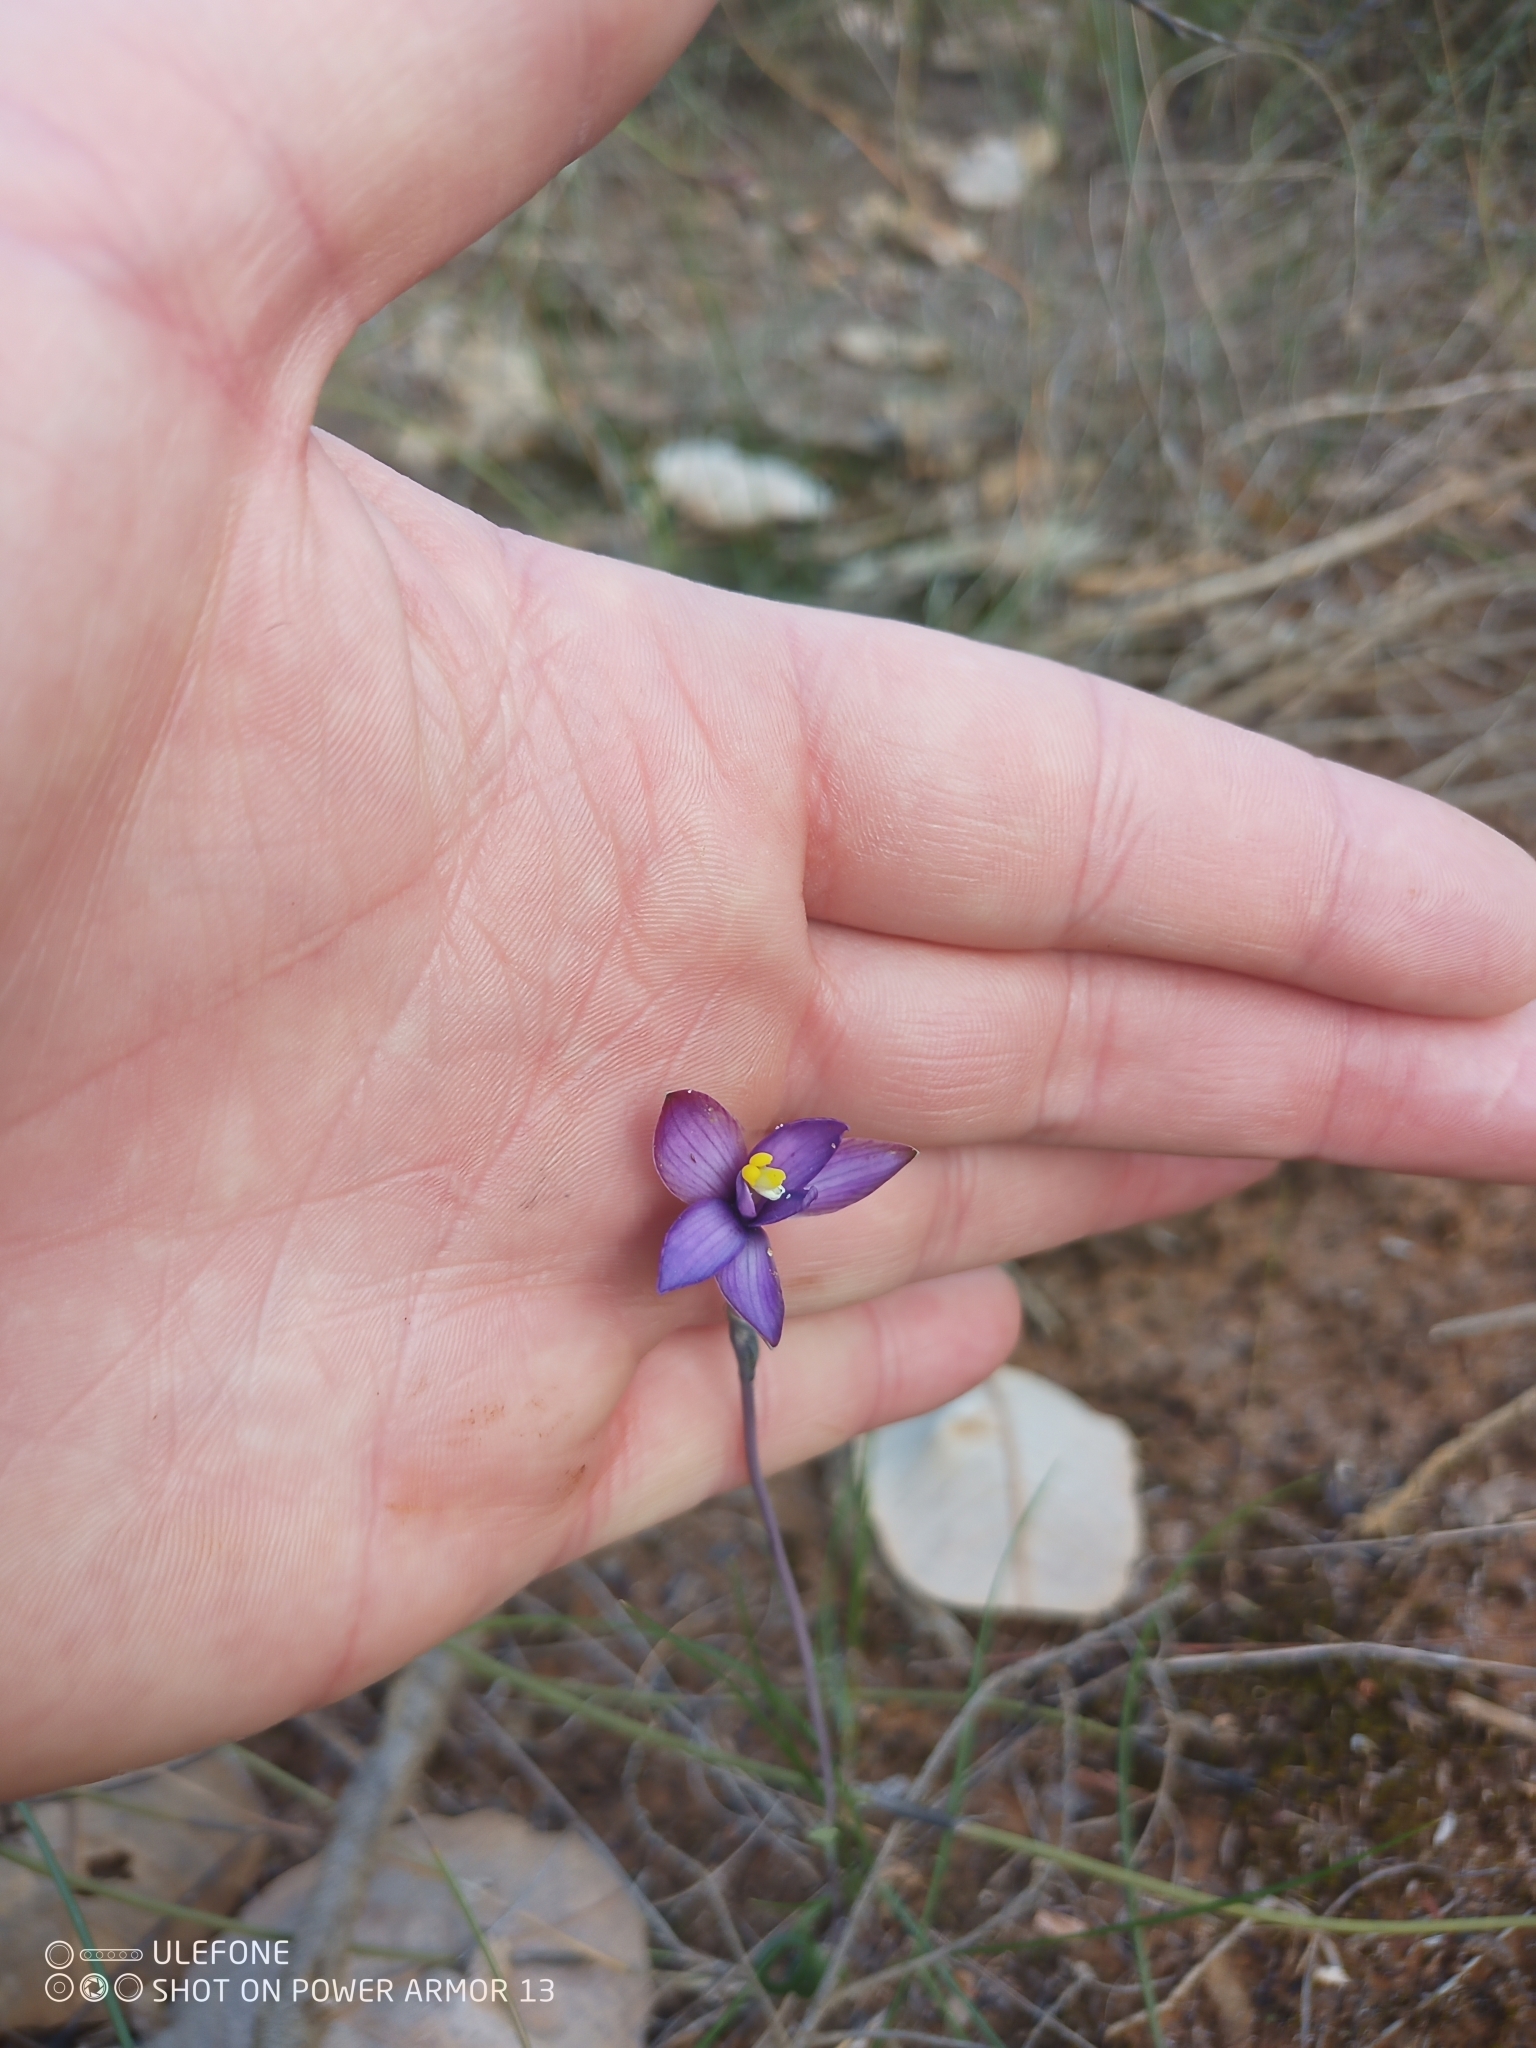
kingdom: Plantae
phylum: Tracheophyta
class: Liliopsida
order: Asparagales
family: Orchidaceae
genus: Thelymitra
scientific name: Thelymitra uliginosa
